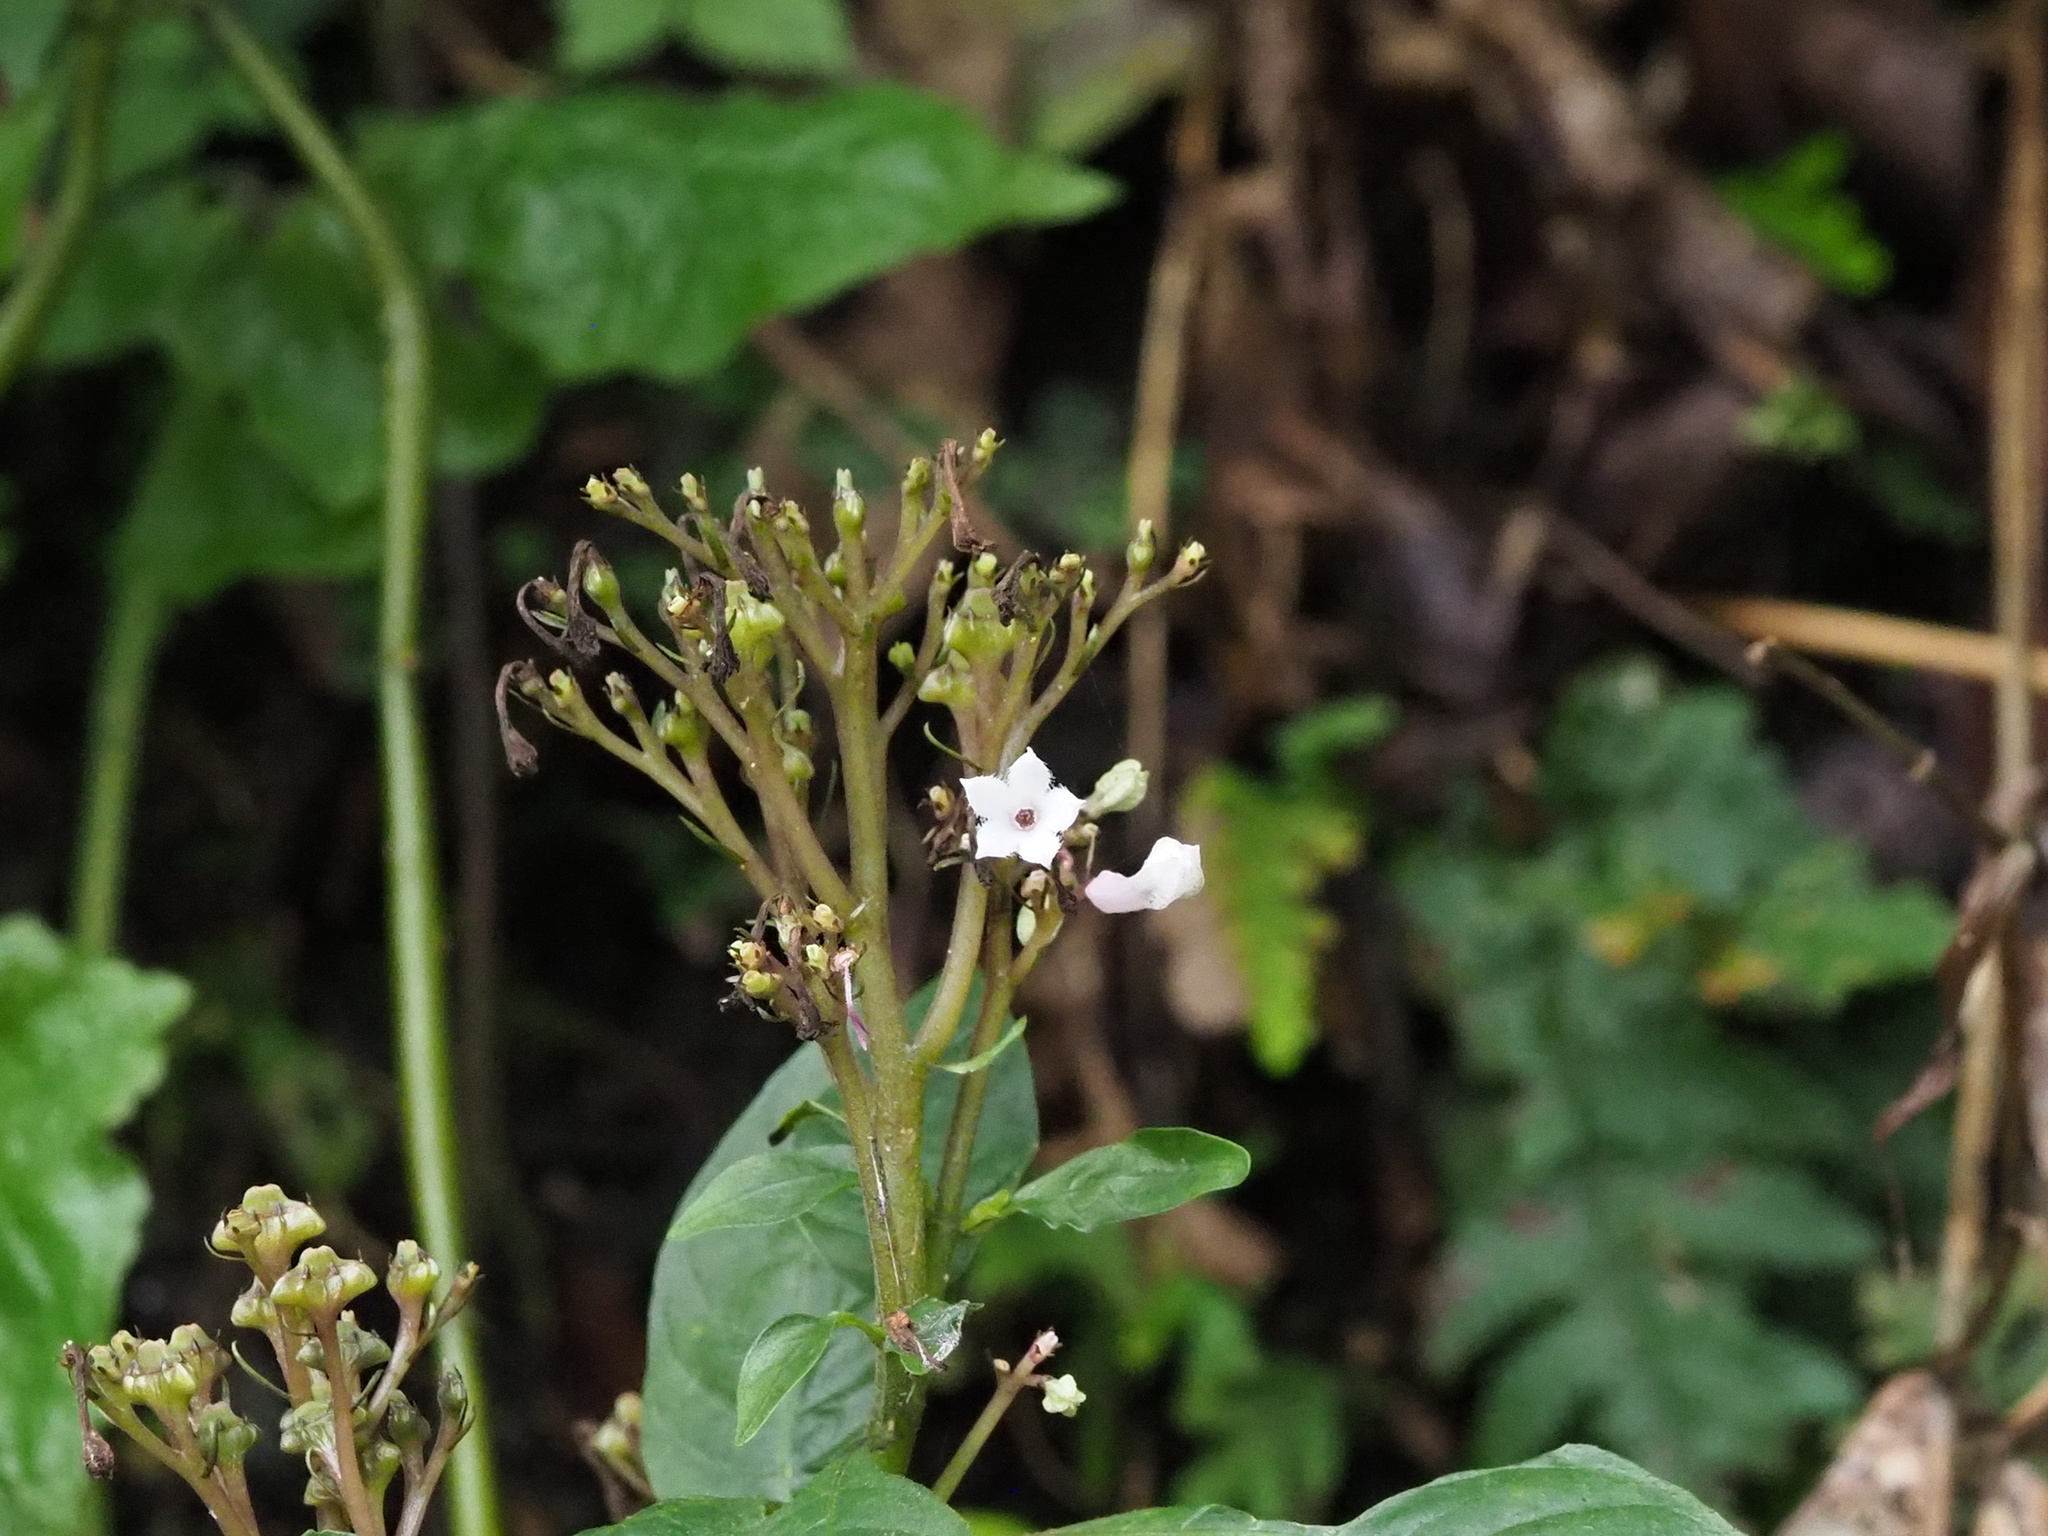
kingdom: Plantae
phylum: Tracheophyta
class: Magnoliopsida
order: Gentianales
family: Rubiaceae
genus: Ophiorrhiza
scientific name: Ophiorrhiza japonica
